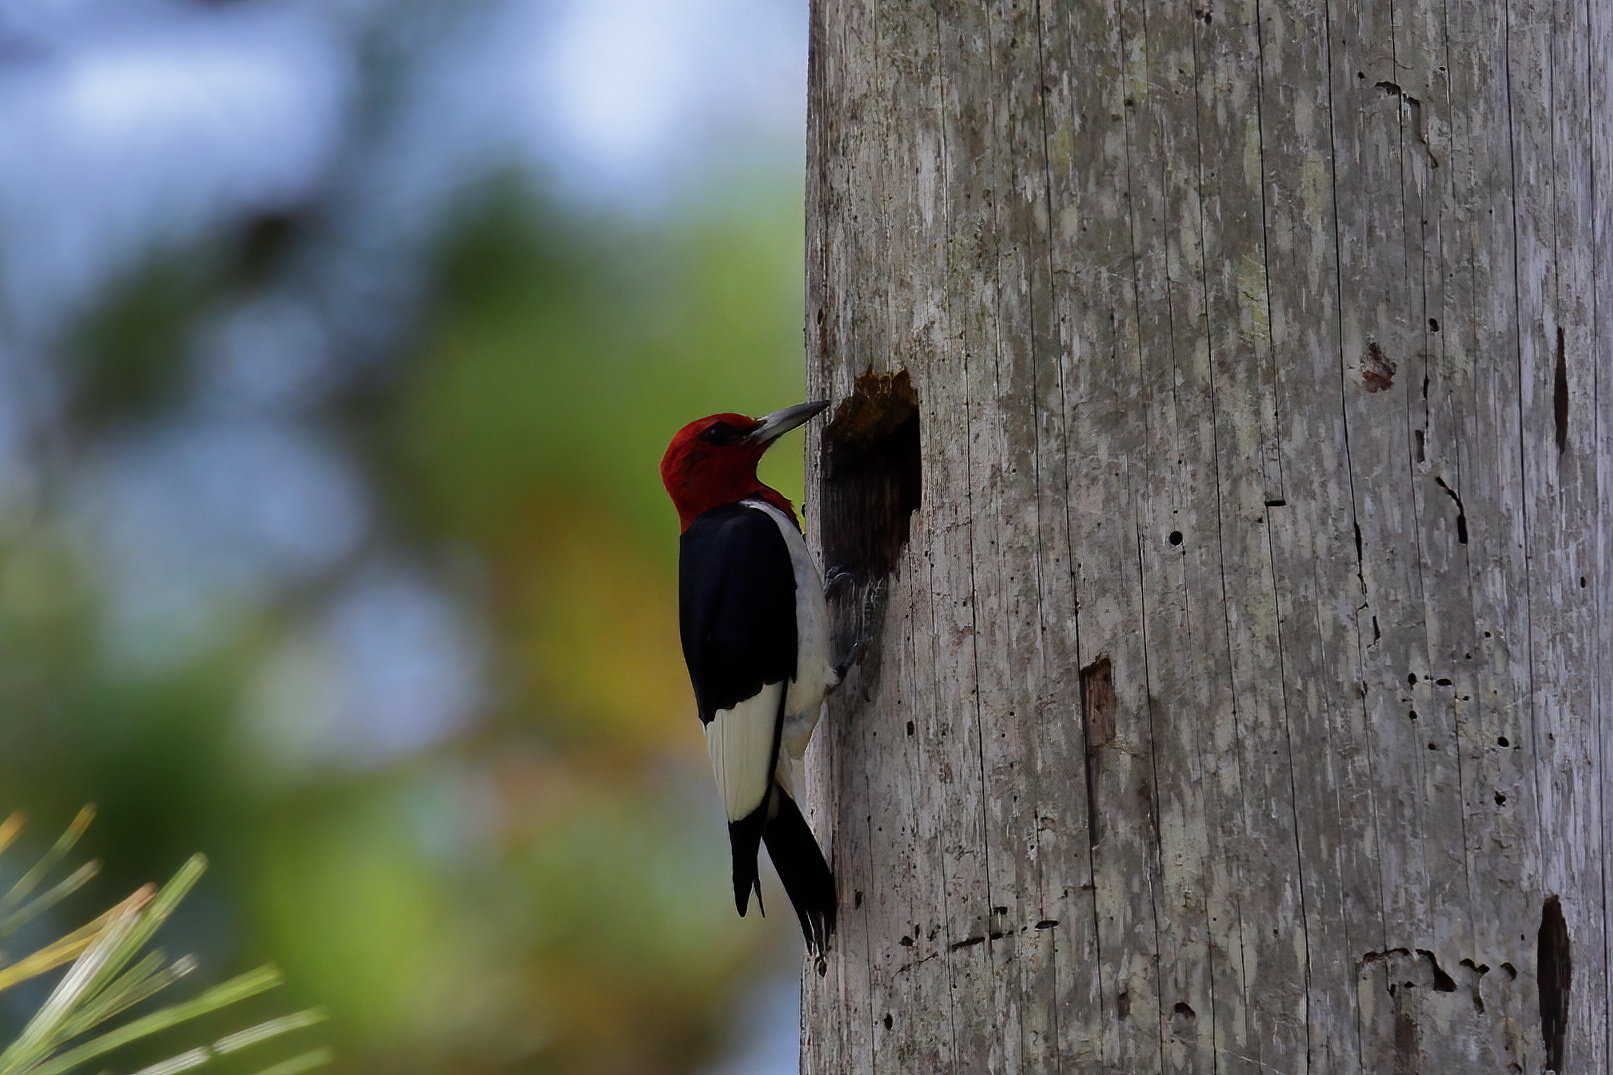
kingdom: Animalia
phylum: Chordata
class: Aves
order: Piciformes
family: Picidae
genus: Melanerpes
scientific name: Melanerpes erythrocephalus
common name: Red-headed woodpecker
